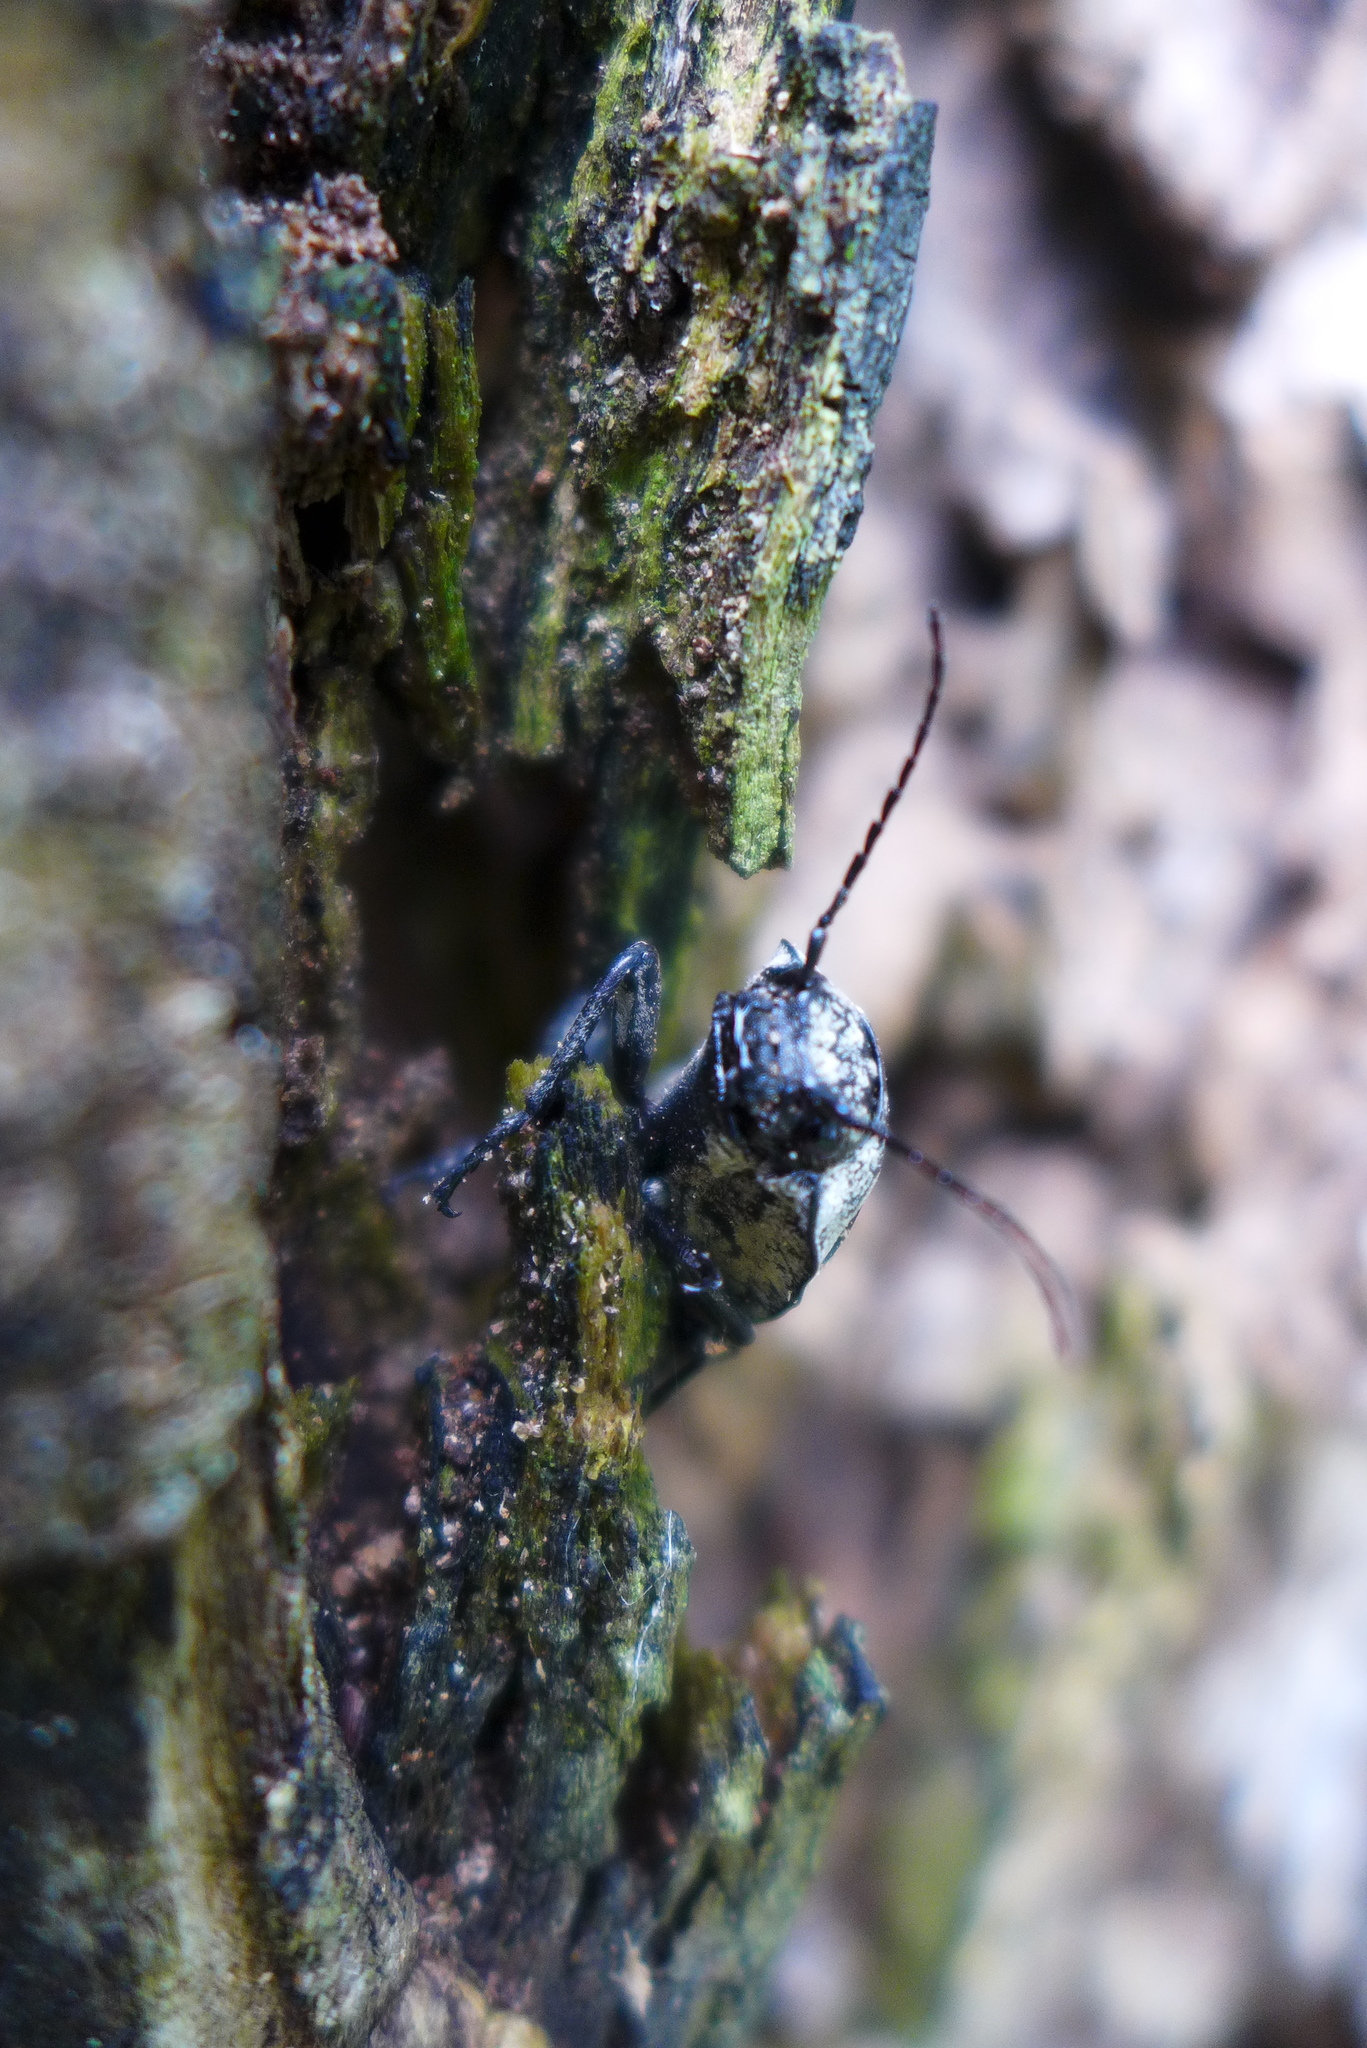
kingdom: Animalia
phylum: Arthropoda
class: Insecta
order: Coleoptera
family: Elateridae
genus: Alaus
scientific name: Alaus oculatus
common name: Eastern eyed click beetle
